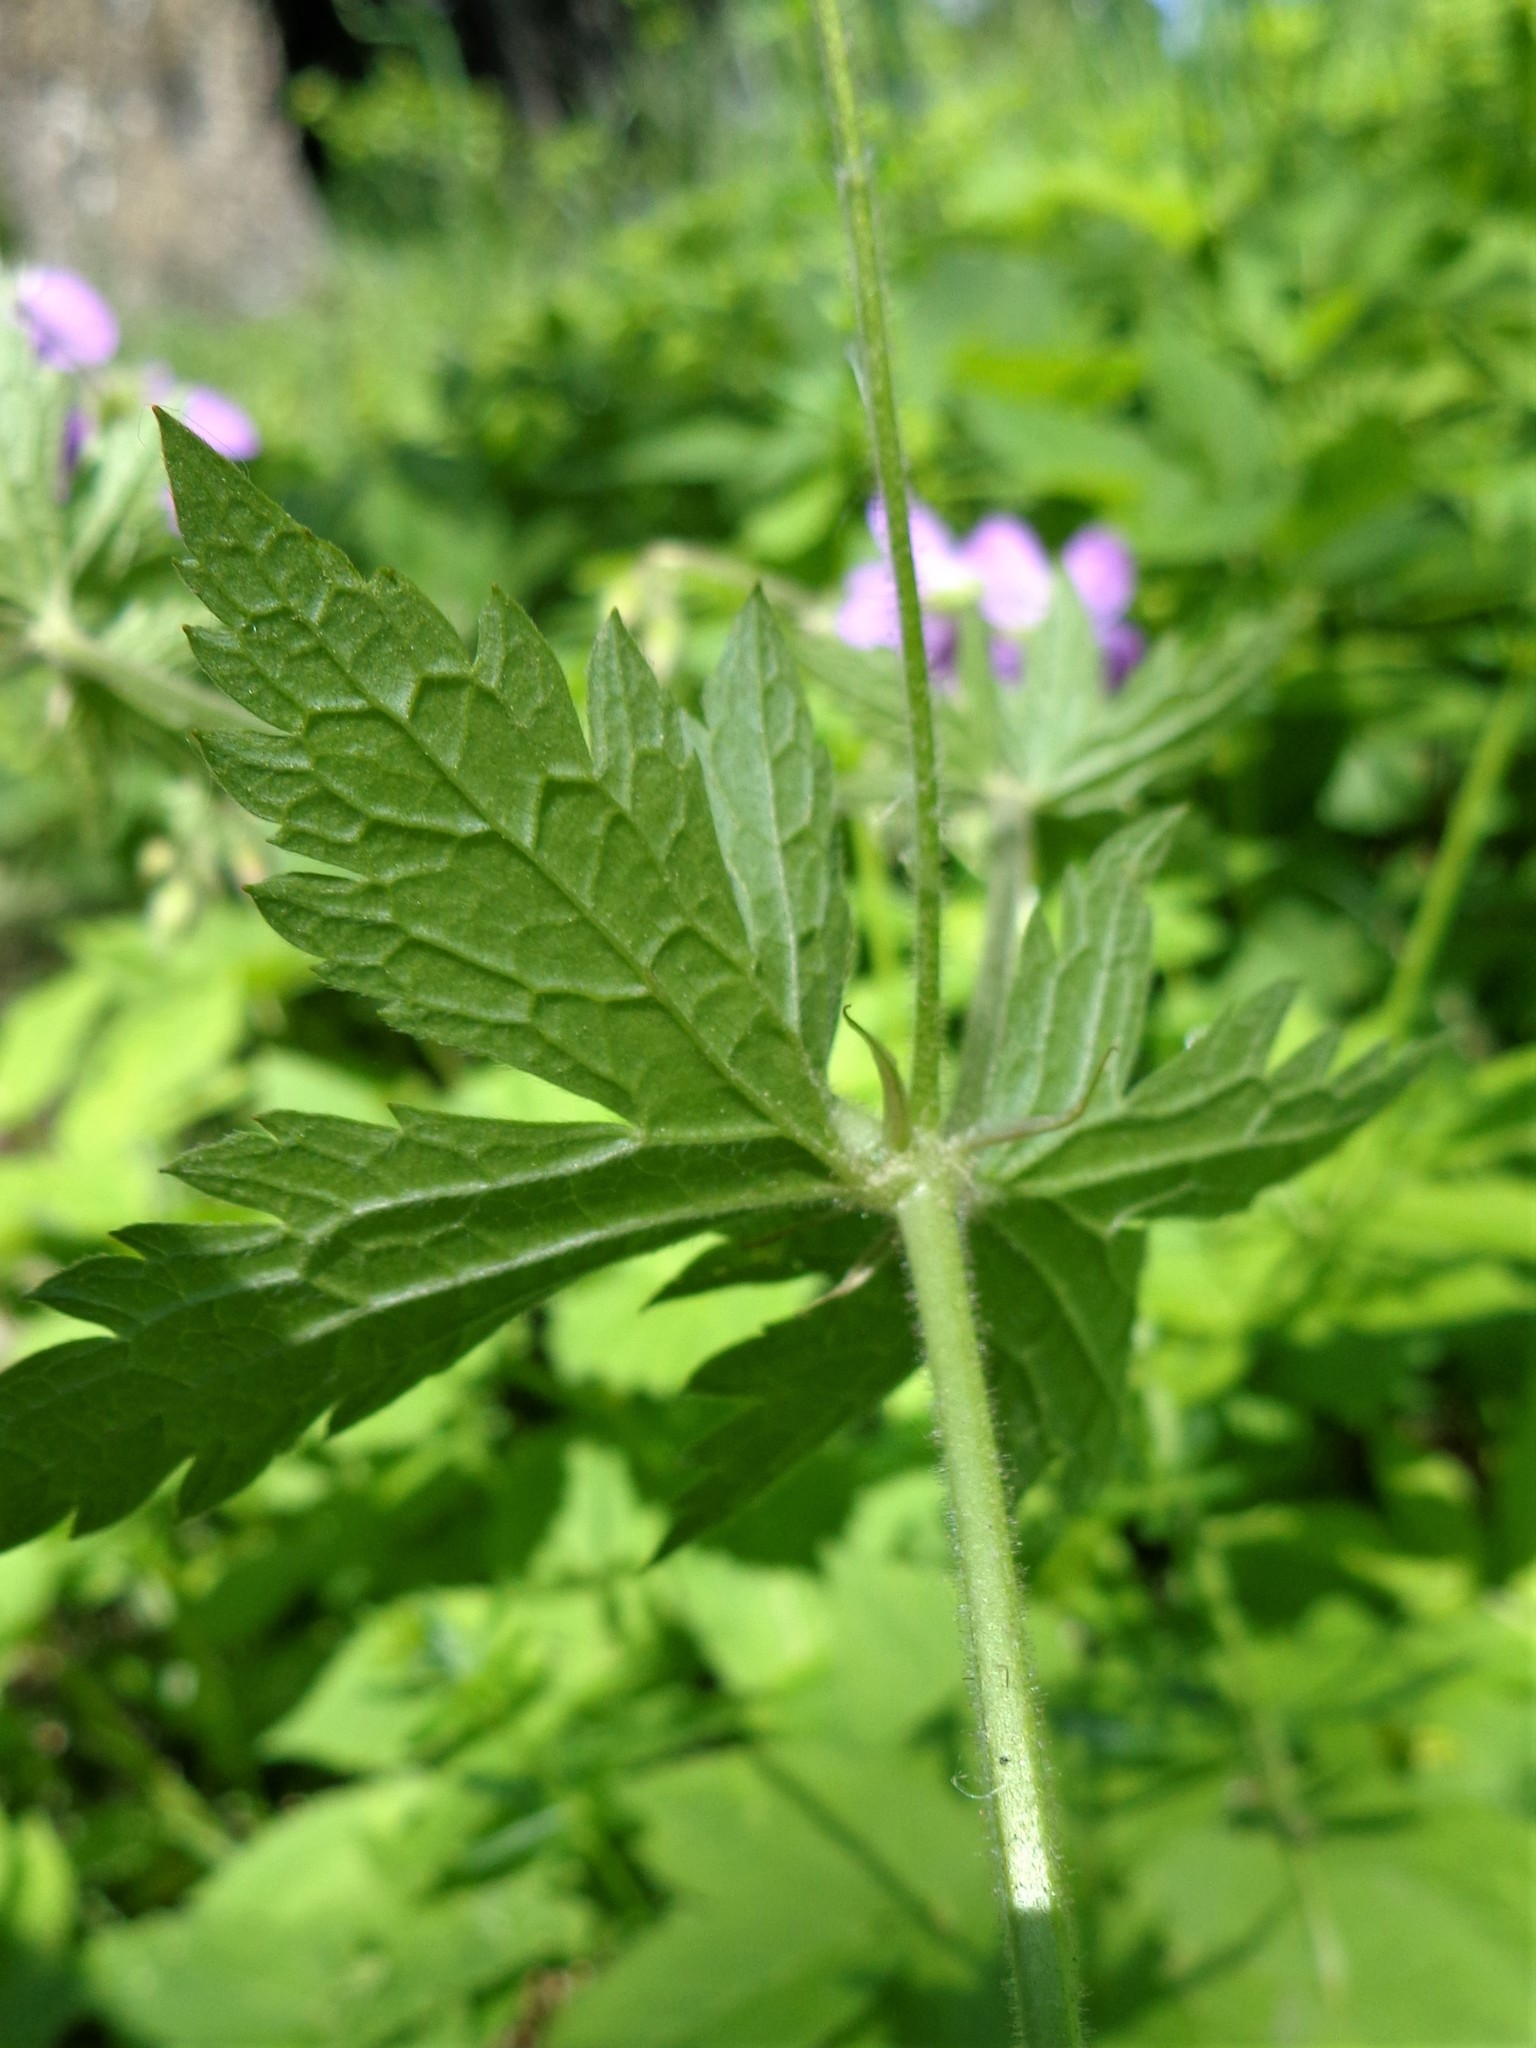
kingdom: Plantae
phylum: Tracheophyta
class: Magnoliopsida
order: Geraniales
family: Geraniaceae
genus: Geranium
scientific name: Geranium sylvaticum
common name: Wood crane's-bill
